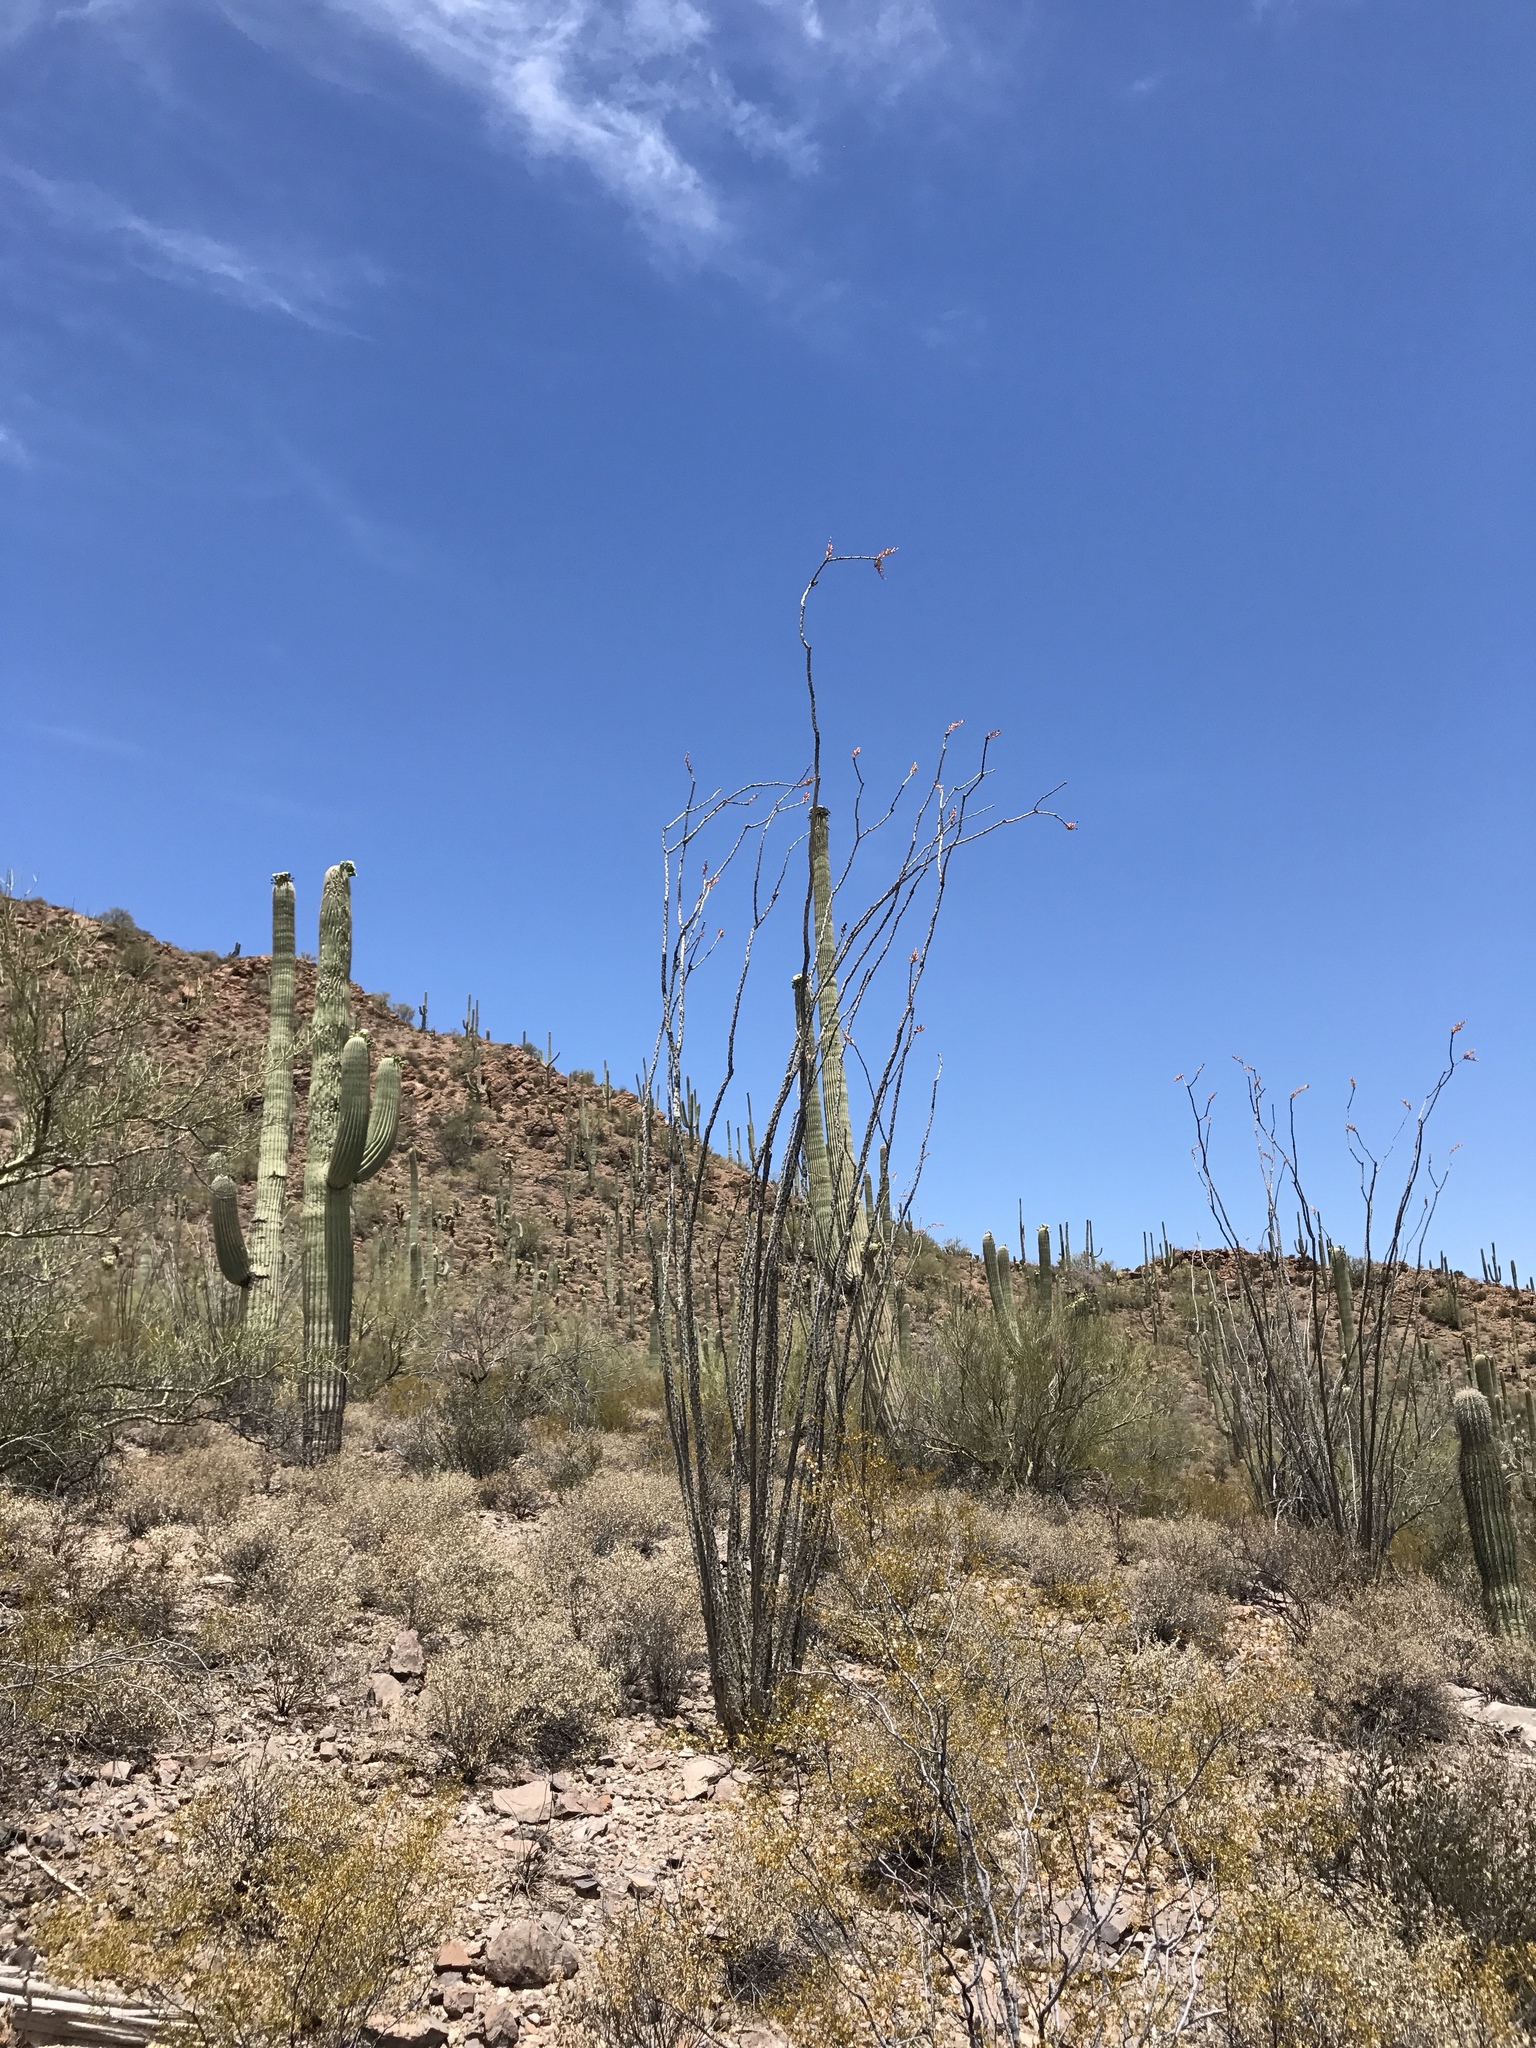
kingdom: Plantae
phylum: Tracheophyta
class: Magnoliopsida
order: Ericales
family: Fouquieriaceae
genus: Fouquieria
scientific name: Fouquieria splendens
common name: Vine-cactus
